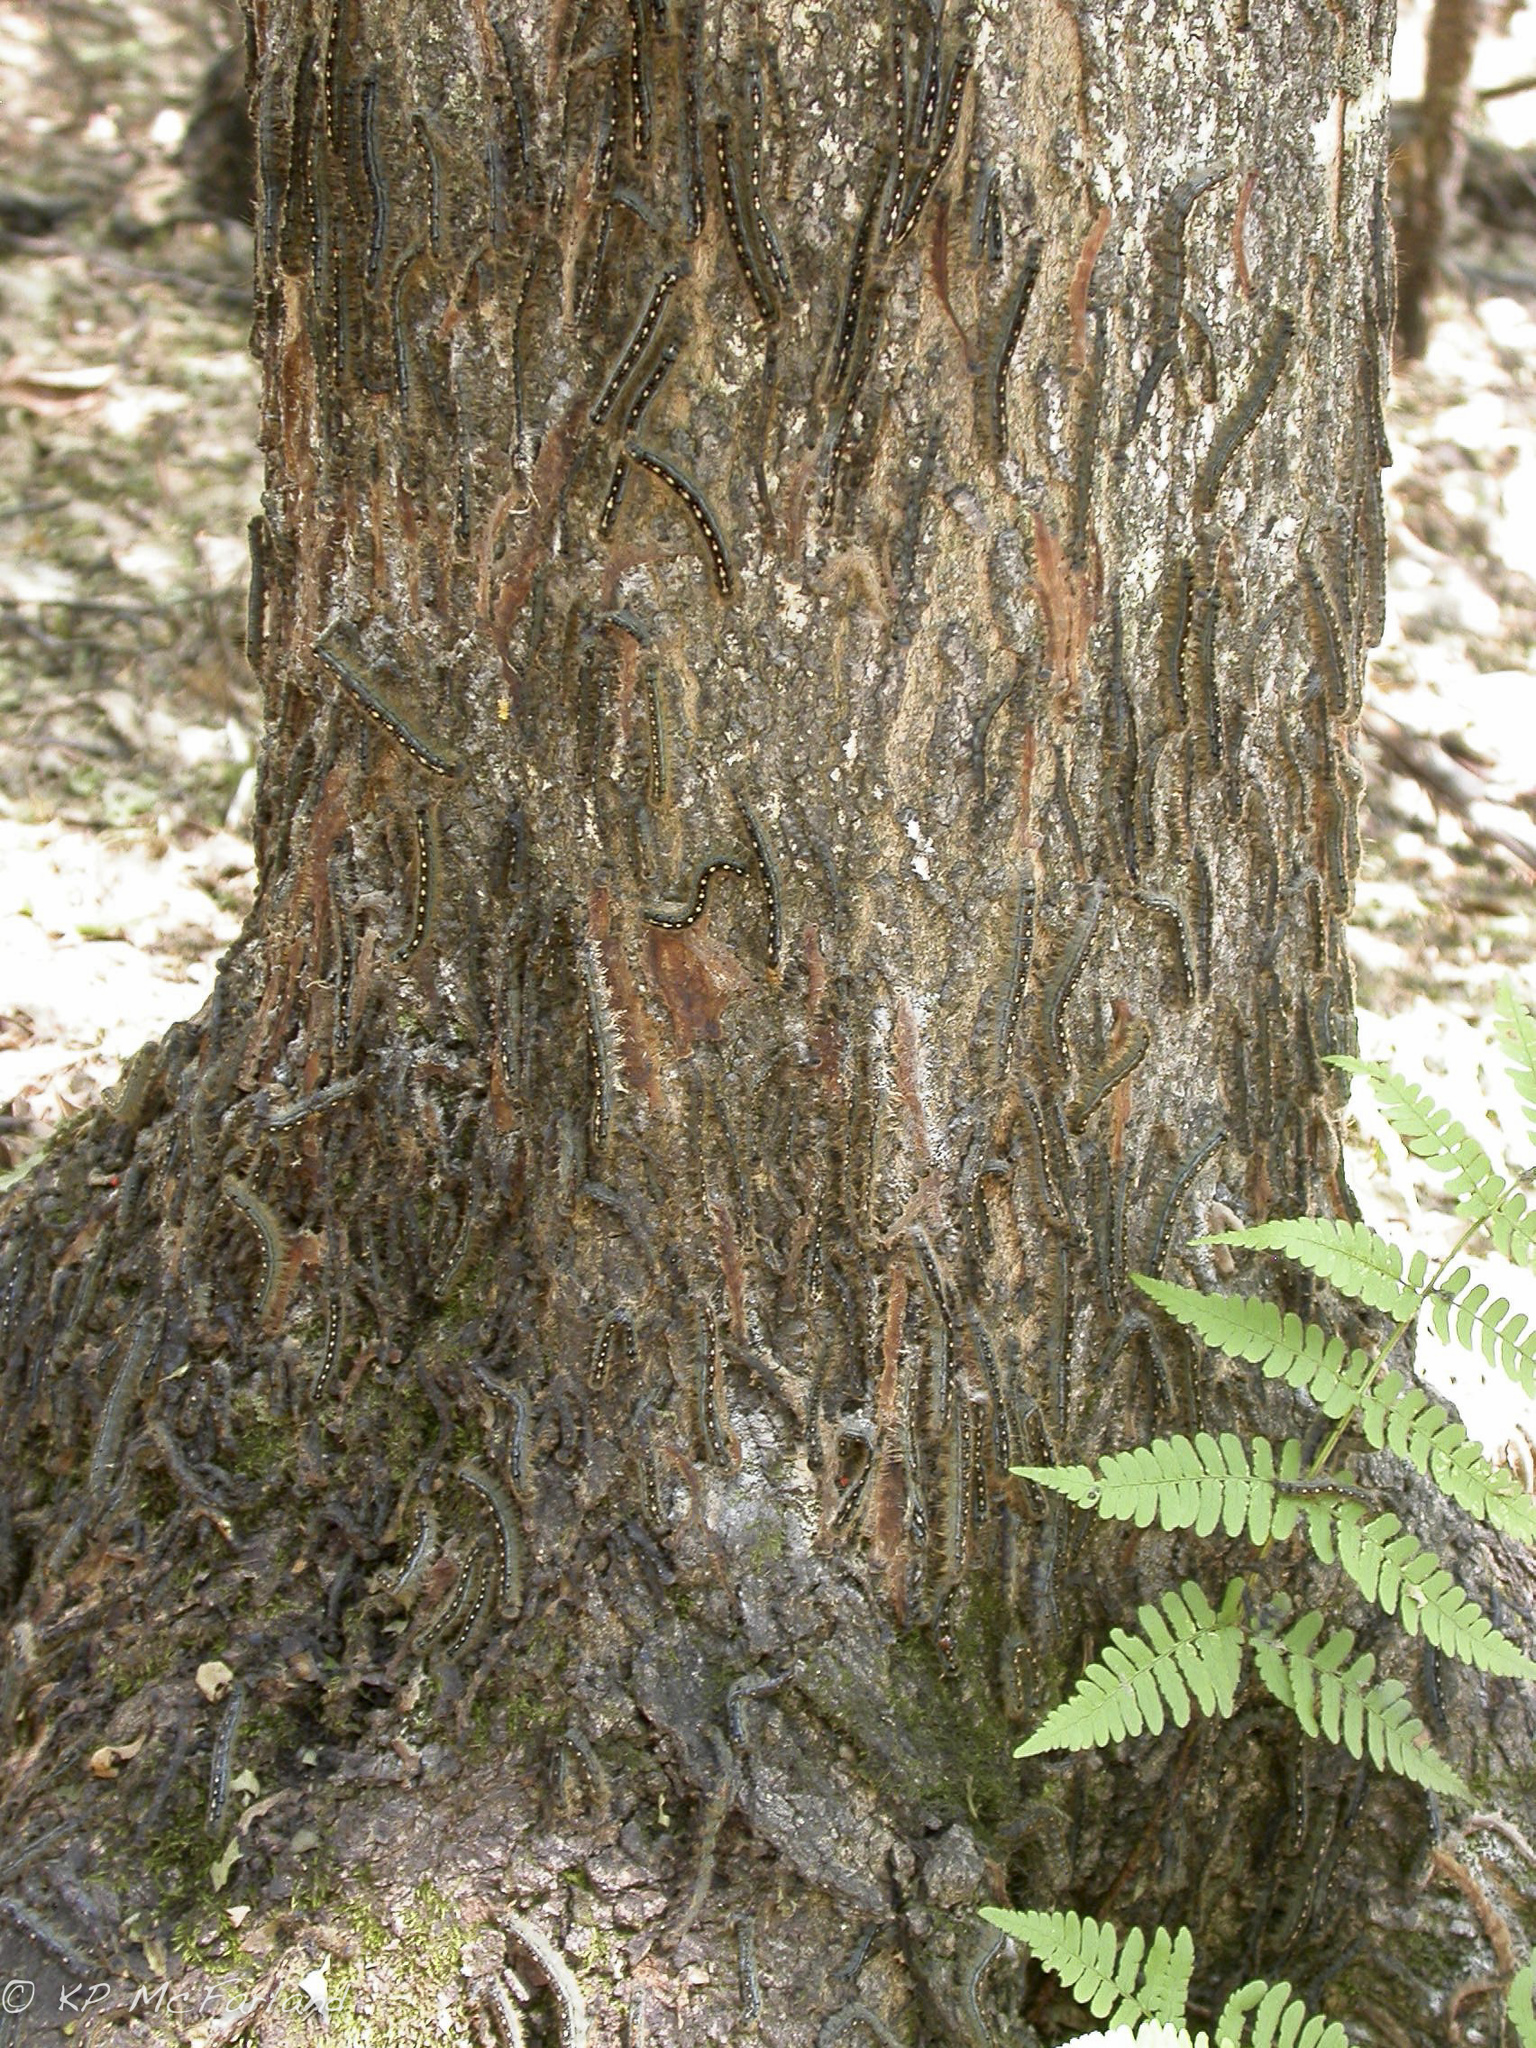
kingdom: Animalia
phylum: Arthropoda
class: Insecta
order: Lepidoptera
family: Lasiocampidae
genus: Malacosoma
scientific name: Malacosoma disstria
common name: Forest tent caterpillar
